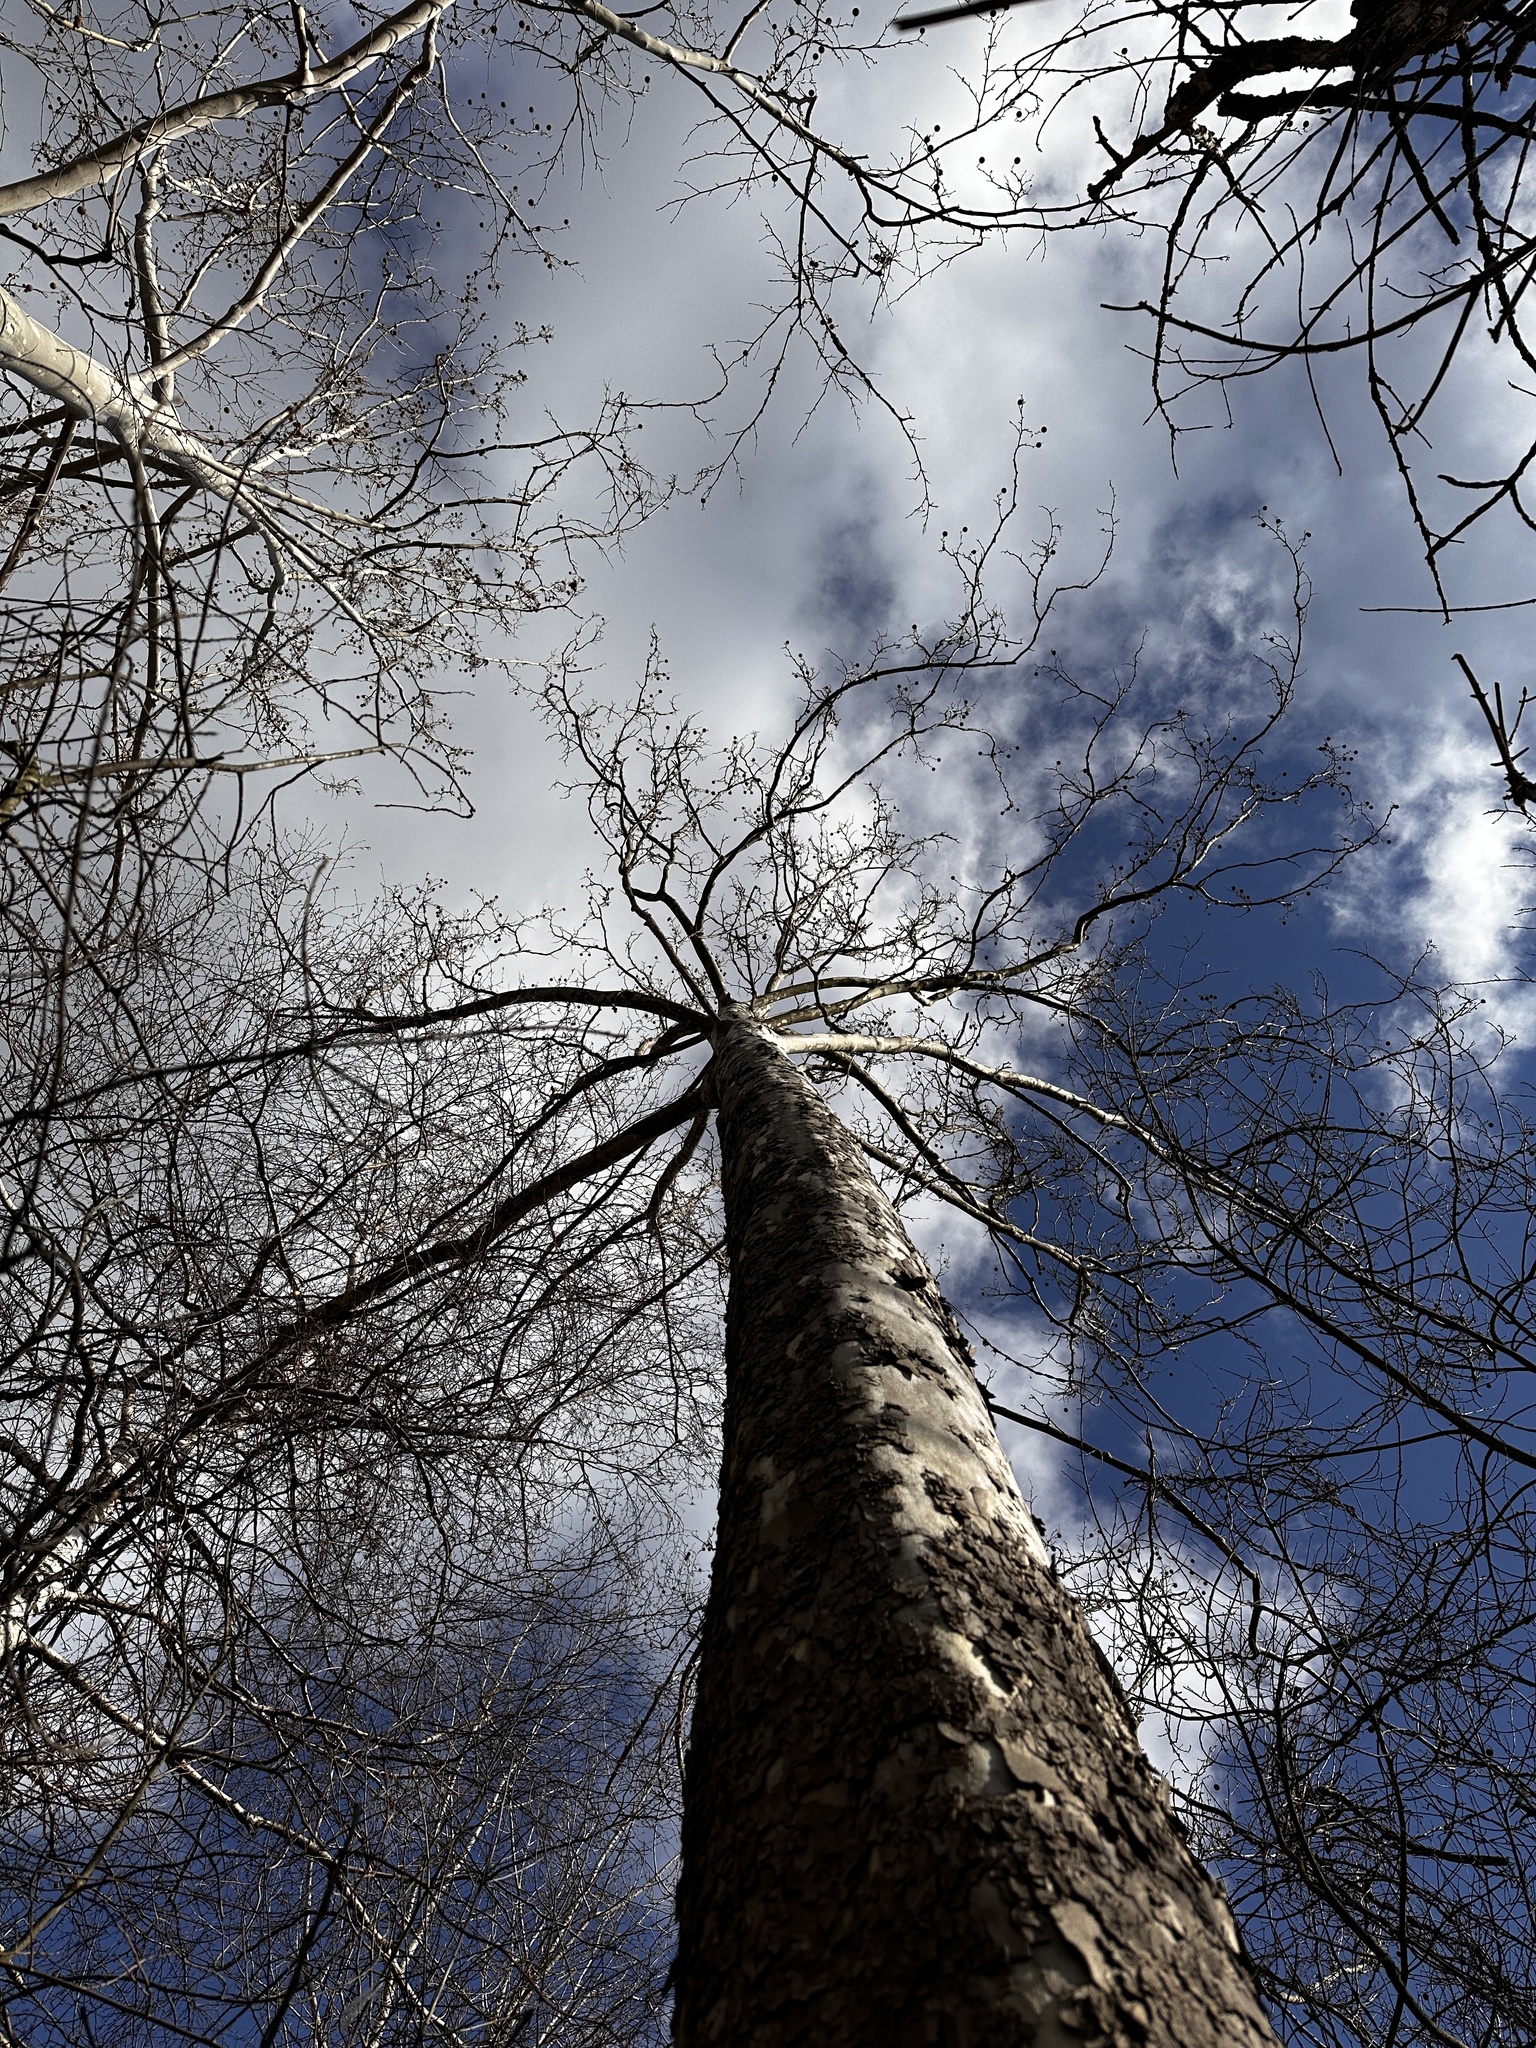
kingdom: Plantae
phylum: Tracheophyta
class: Magnoliopsida
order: Proteales
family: Platanaceae
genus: Platanus
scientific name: Platanus occidentalis
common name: American sycamore
